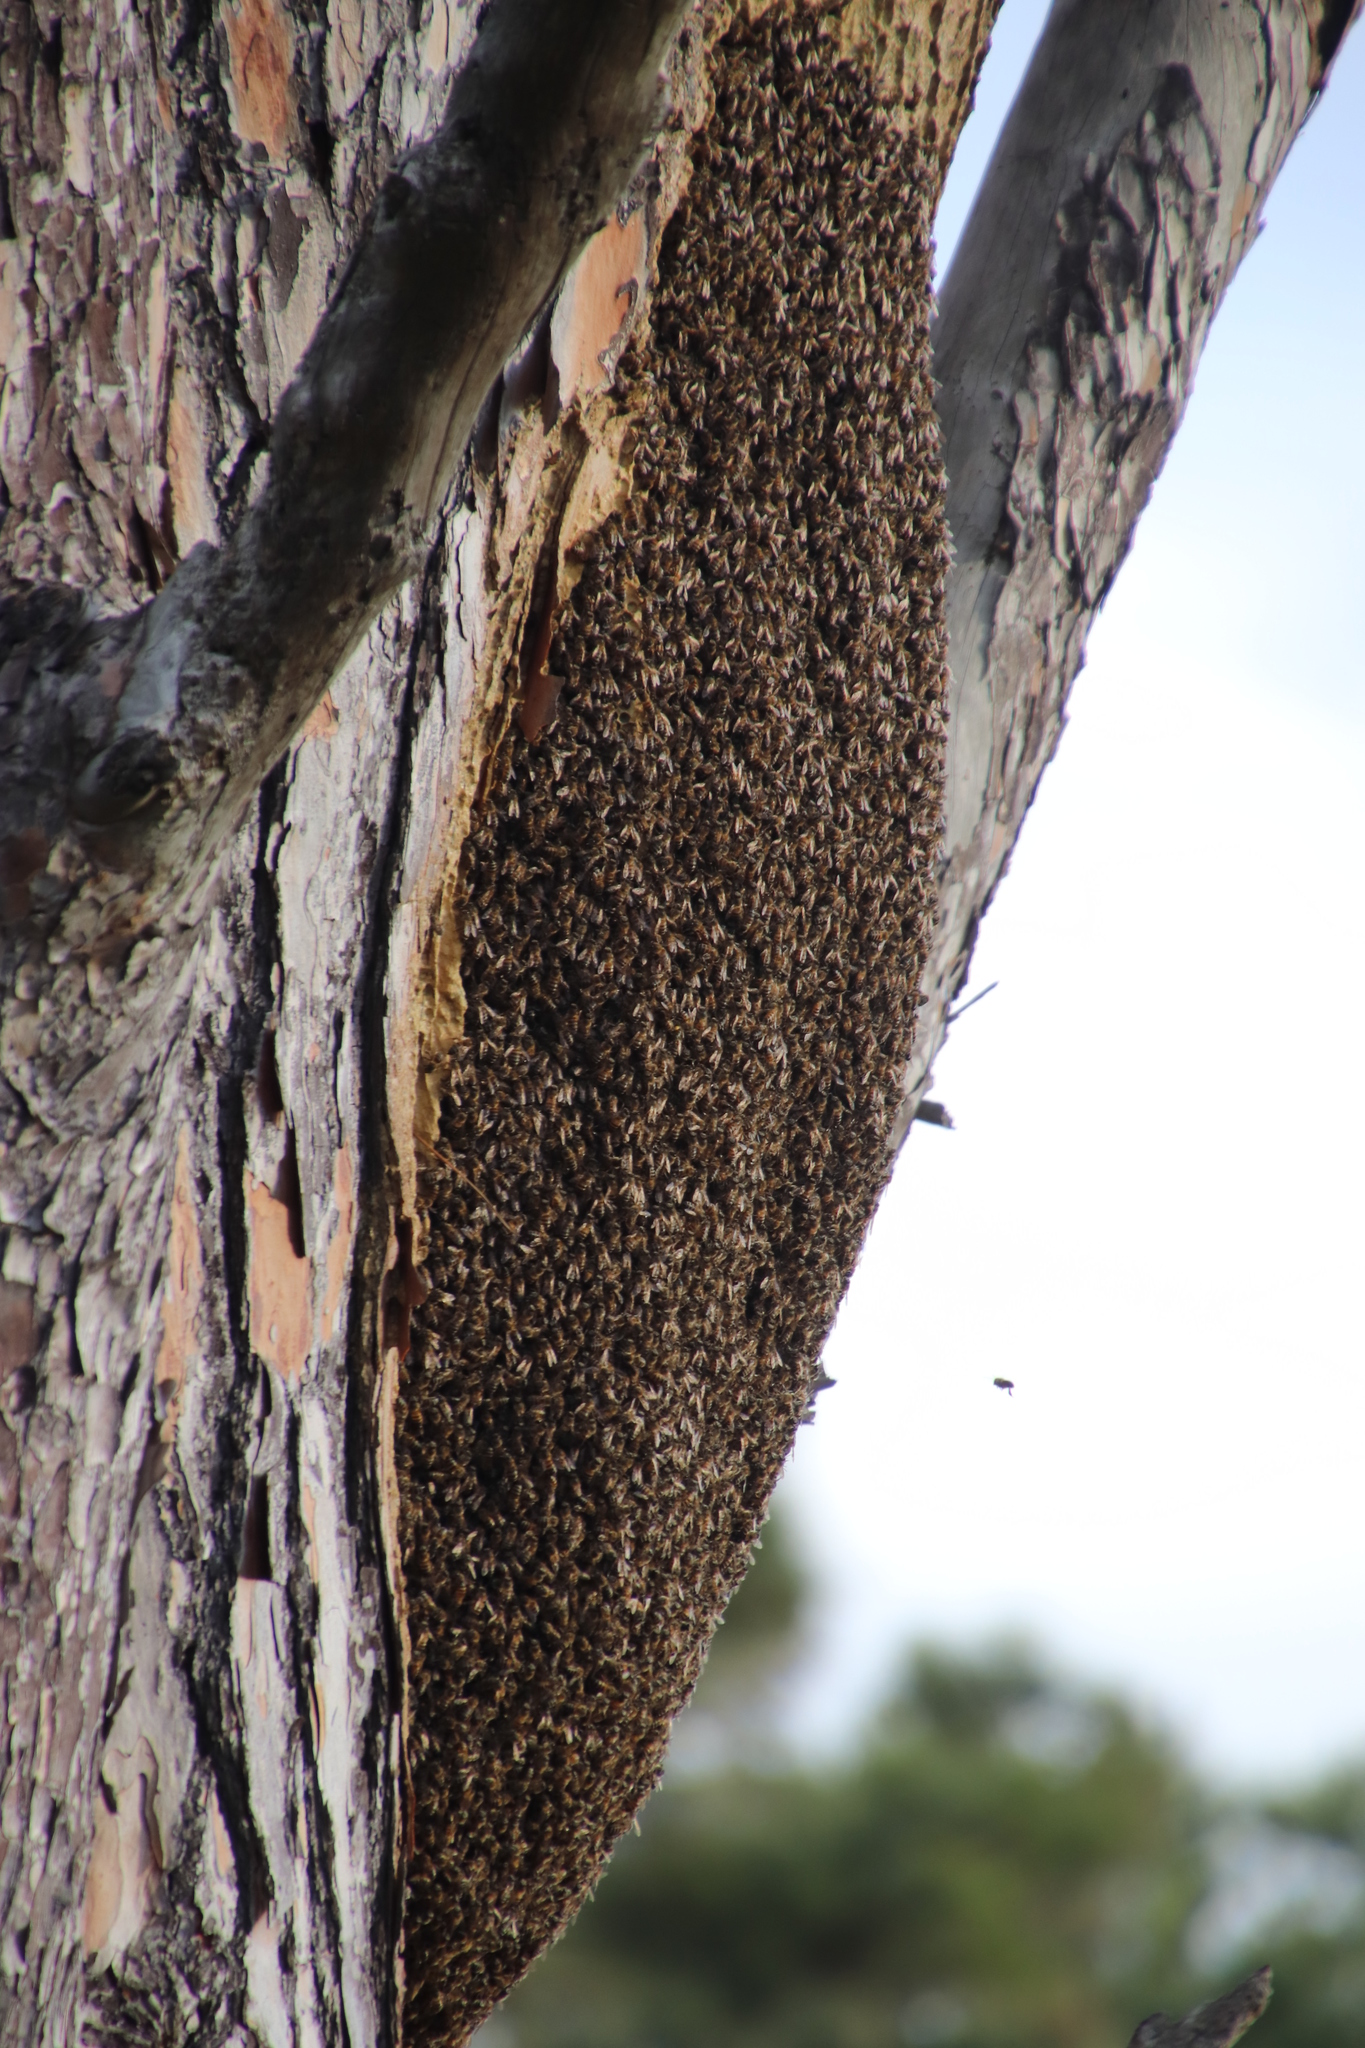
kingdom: Animalia
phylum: Arthropoda
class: Insecta
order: Hymenoptera
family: Apidae
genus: Apis
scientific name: Apis mellifera
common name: Honey bee
